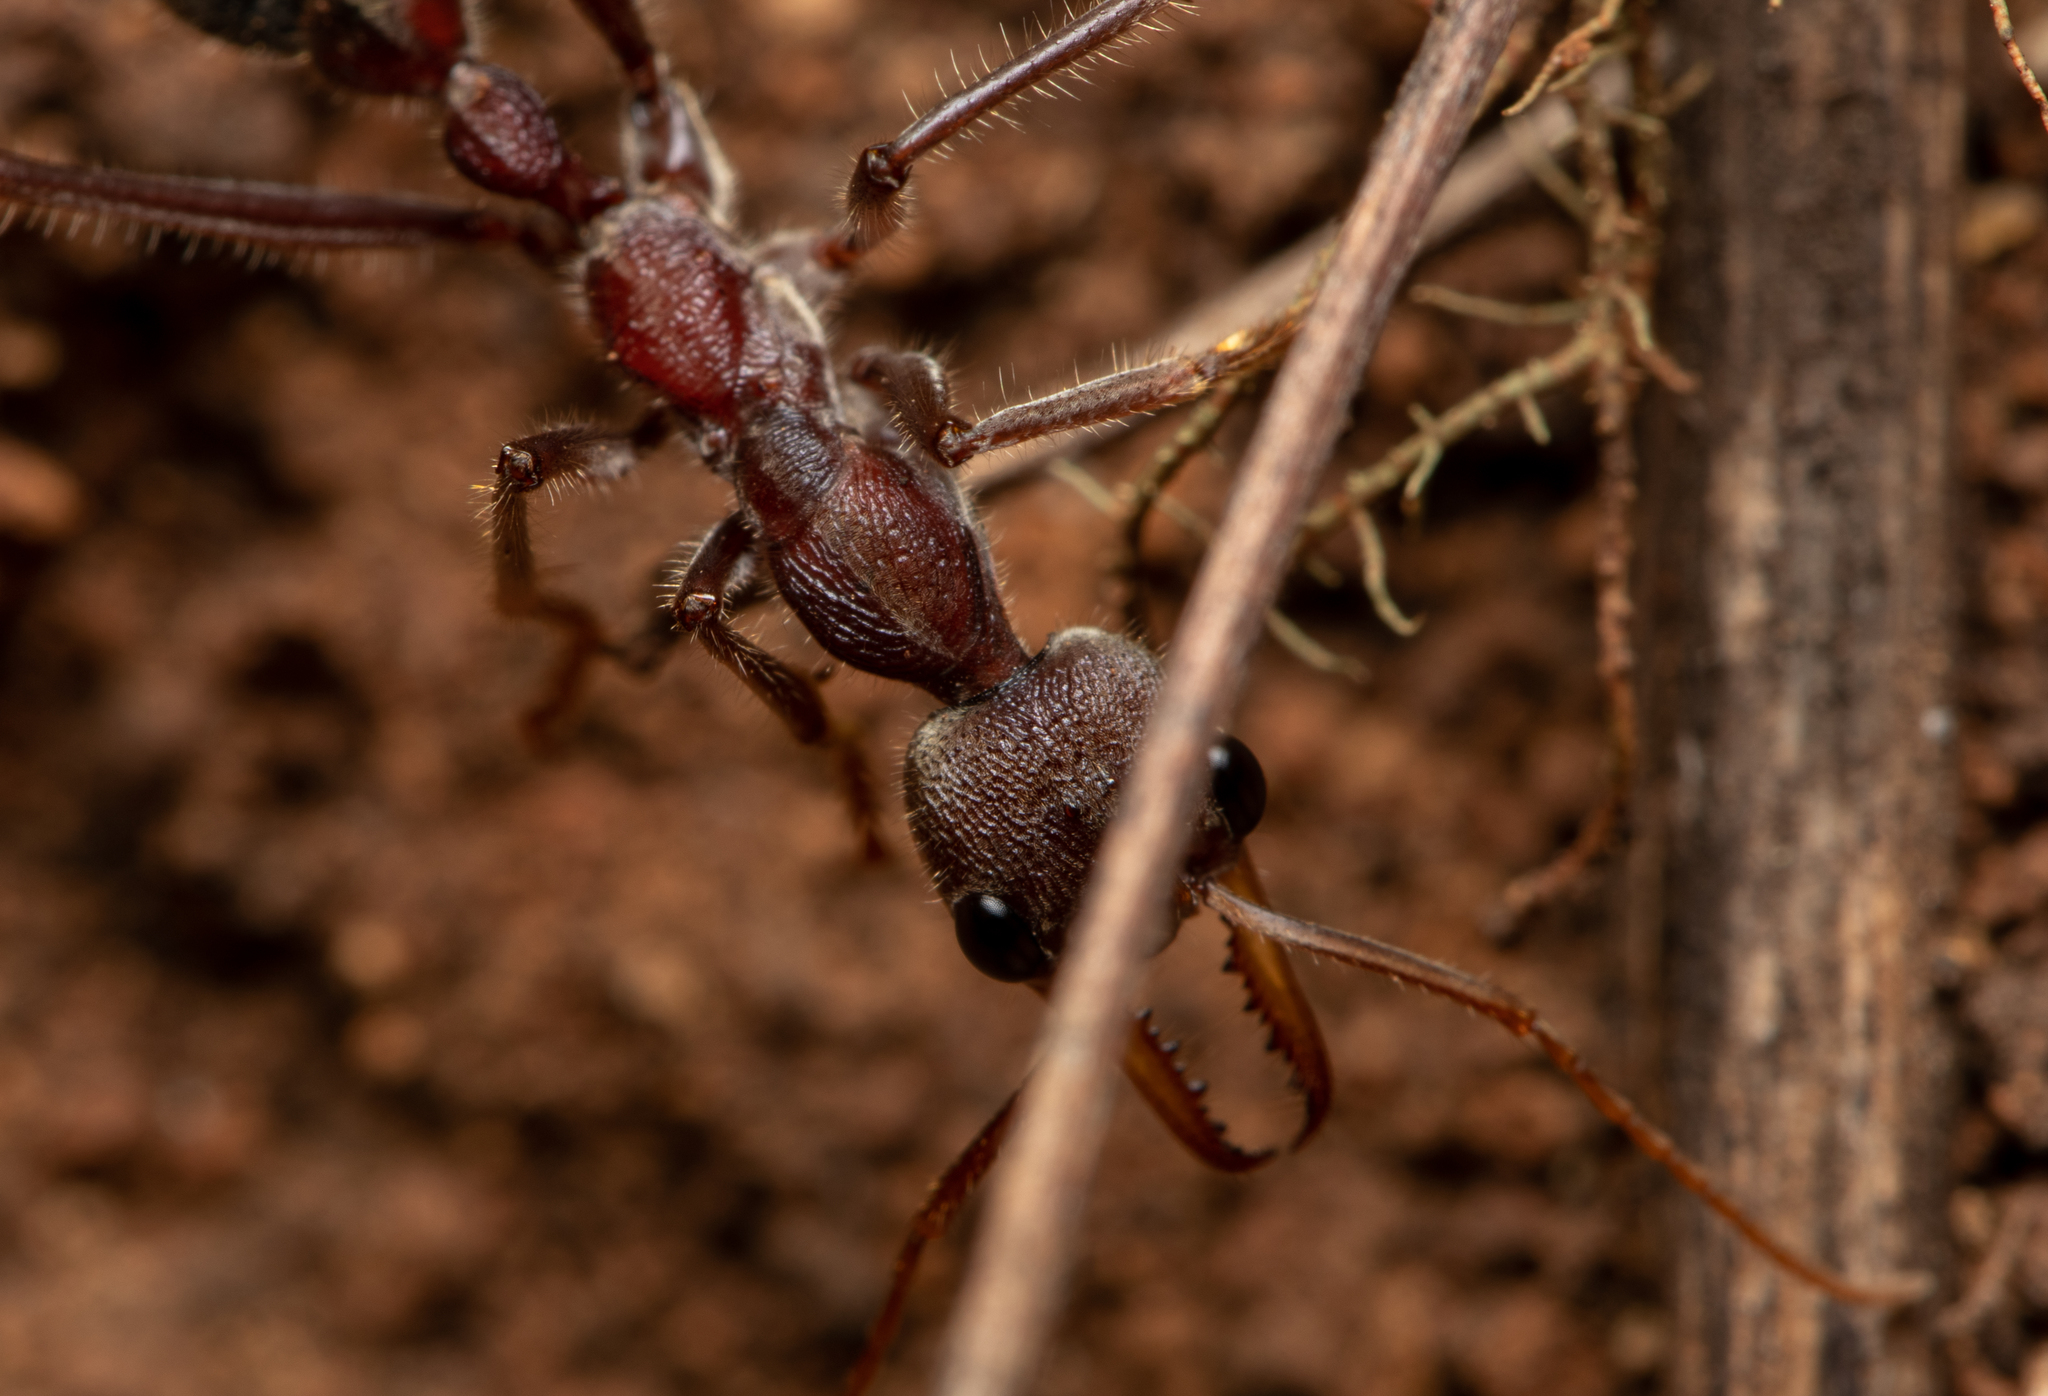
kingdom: Animalia
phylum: Arthropoda
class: Insecta
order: Hymenoptera
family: Formicidae
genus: Myrmecia
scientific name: Myrmecia flavicoma
